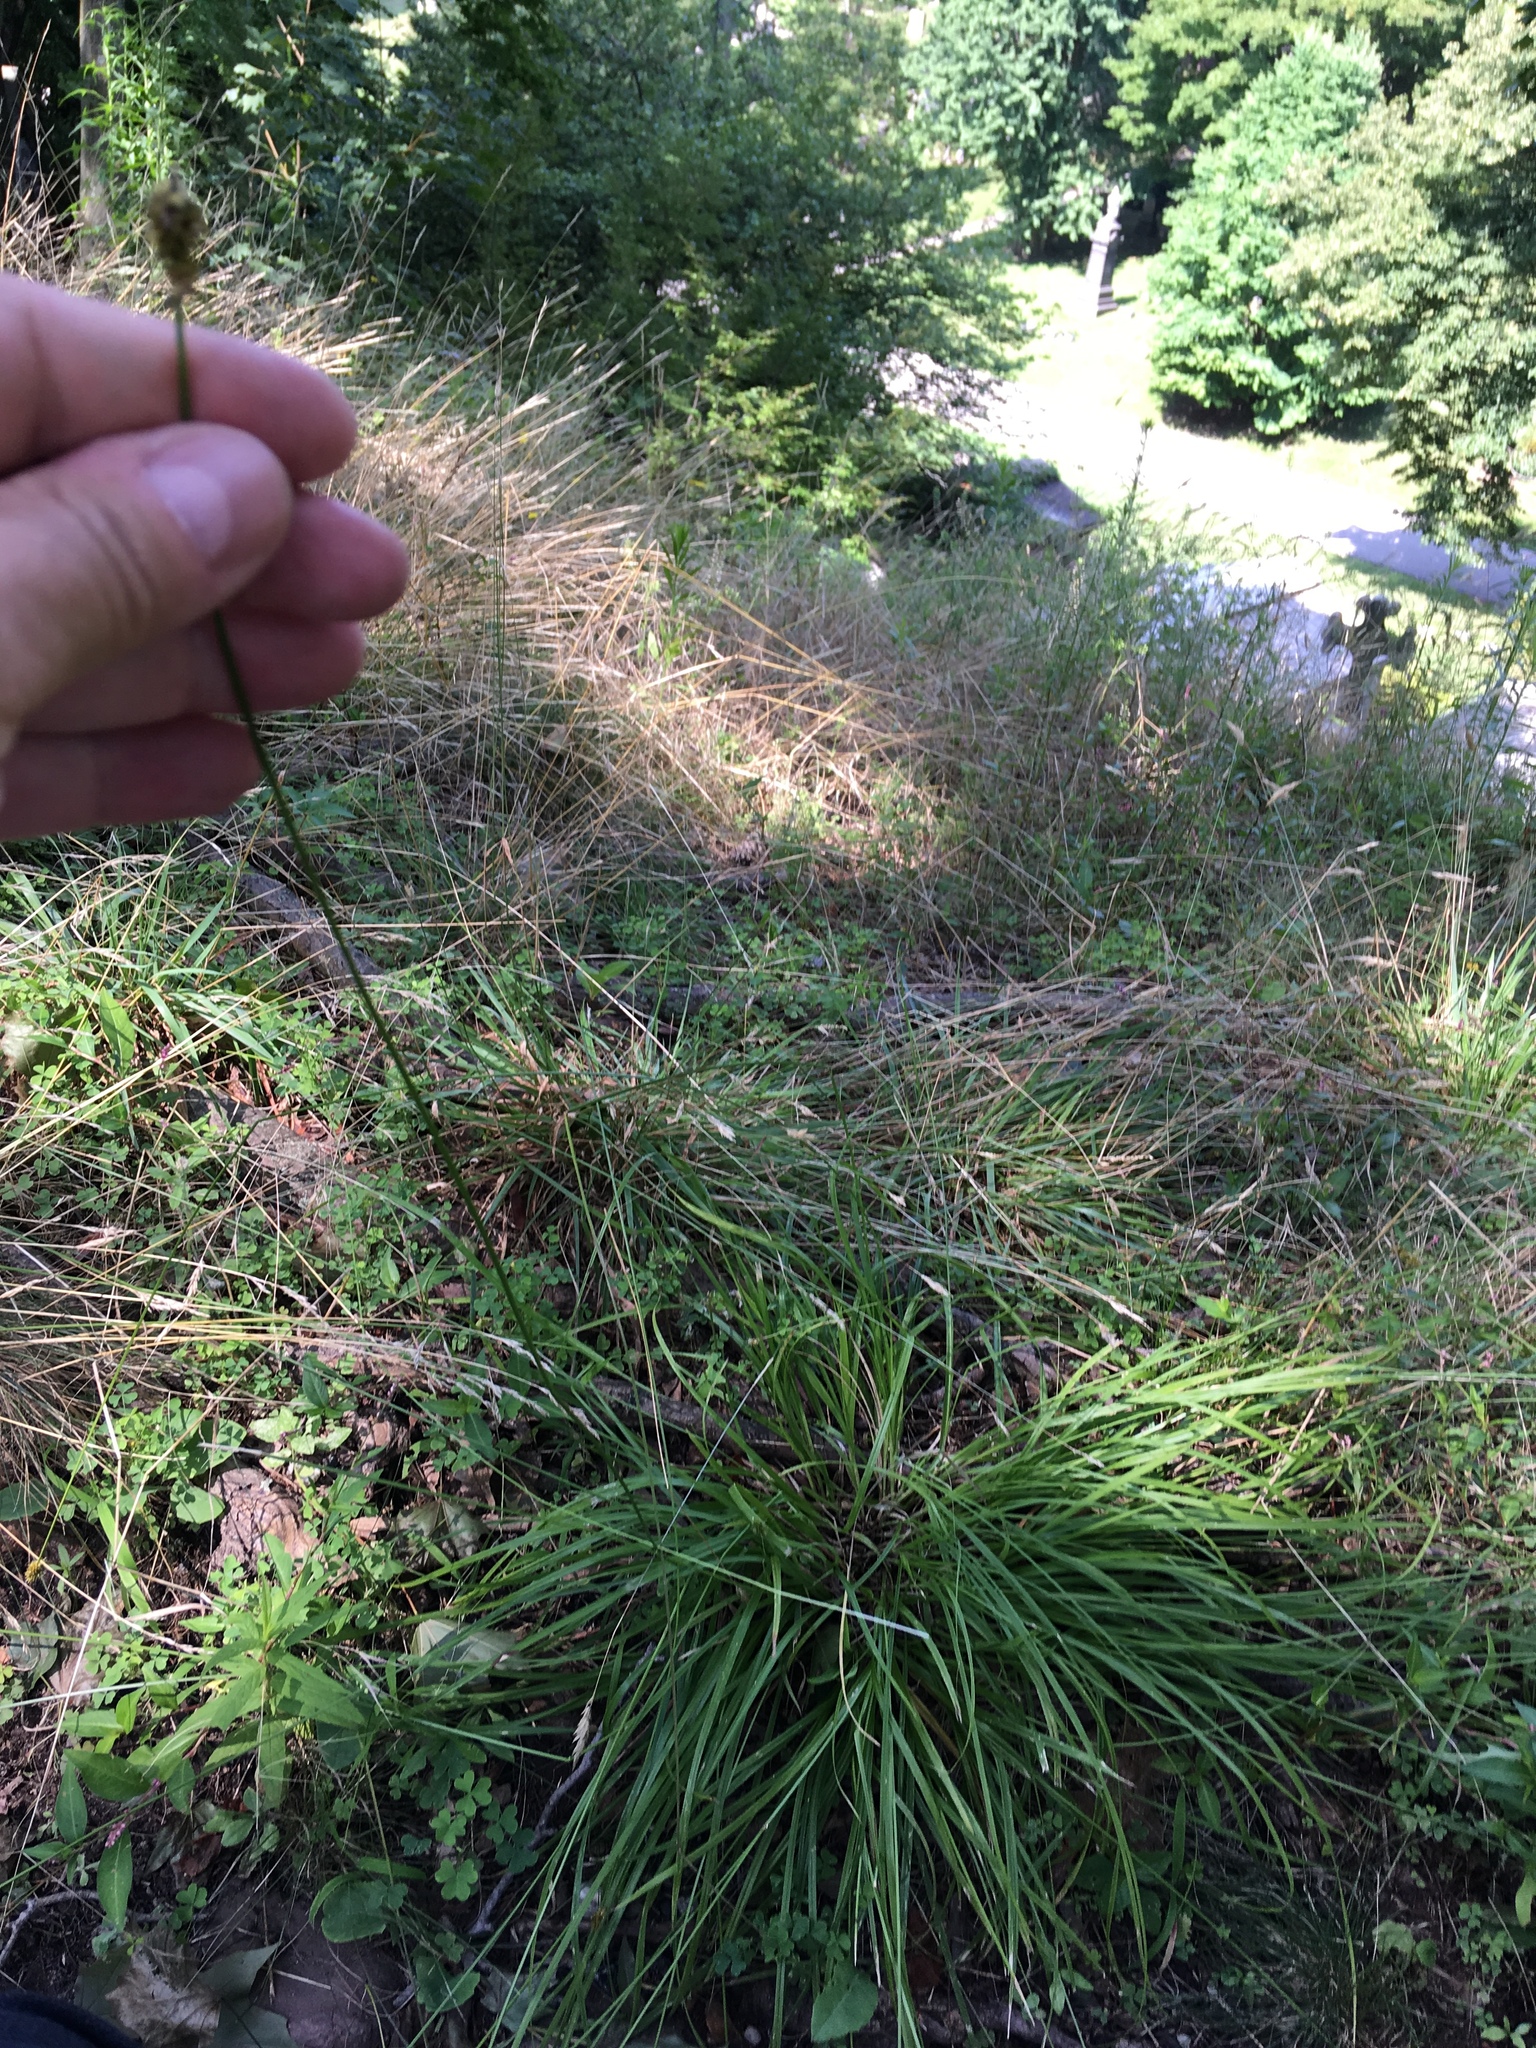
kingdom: Plantae
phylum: Tracheophyta
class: Liliopsida
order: Poales
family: Cyperaceae
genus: Carex
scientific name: Carex cephalophora
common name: Oval-headed sedge
